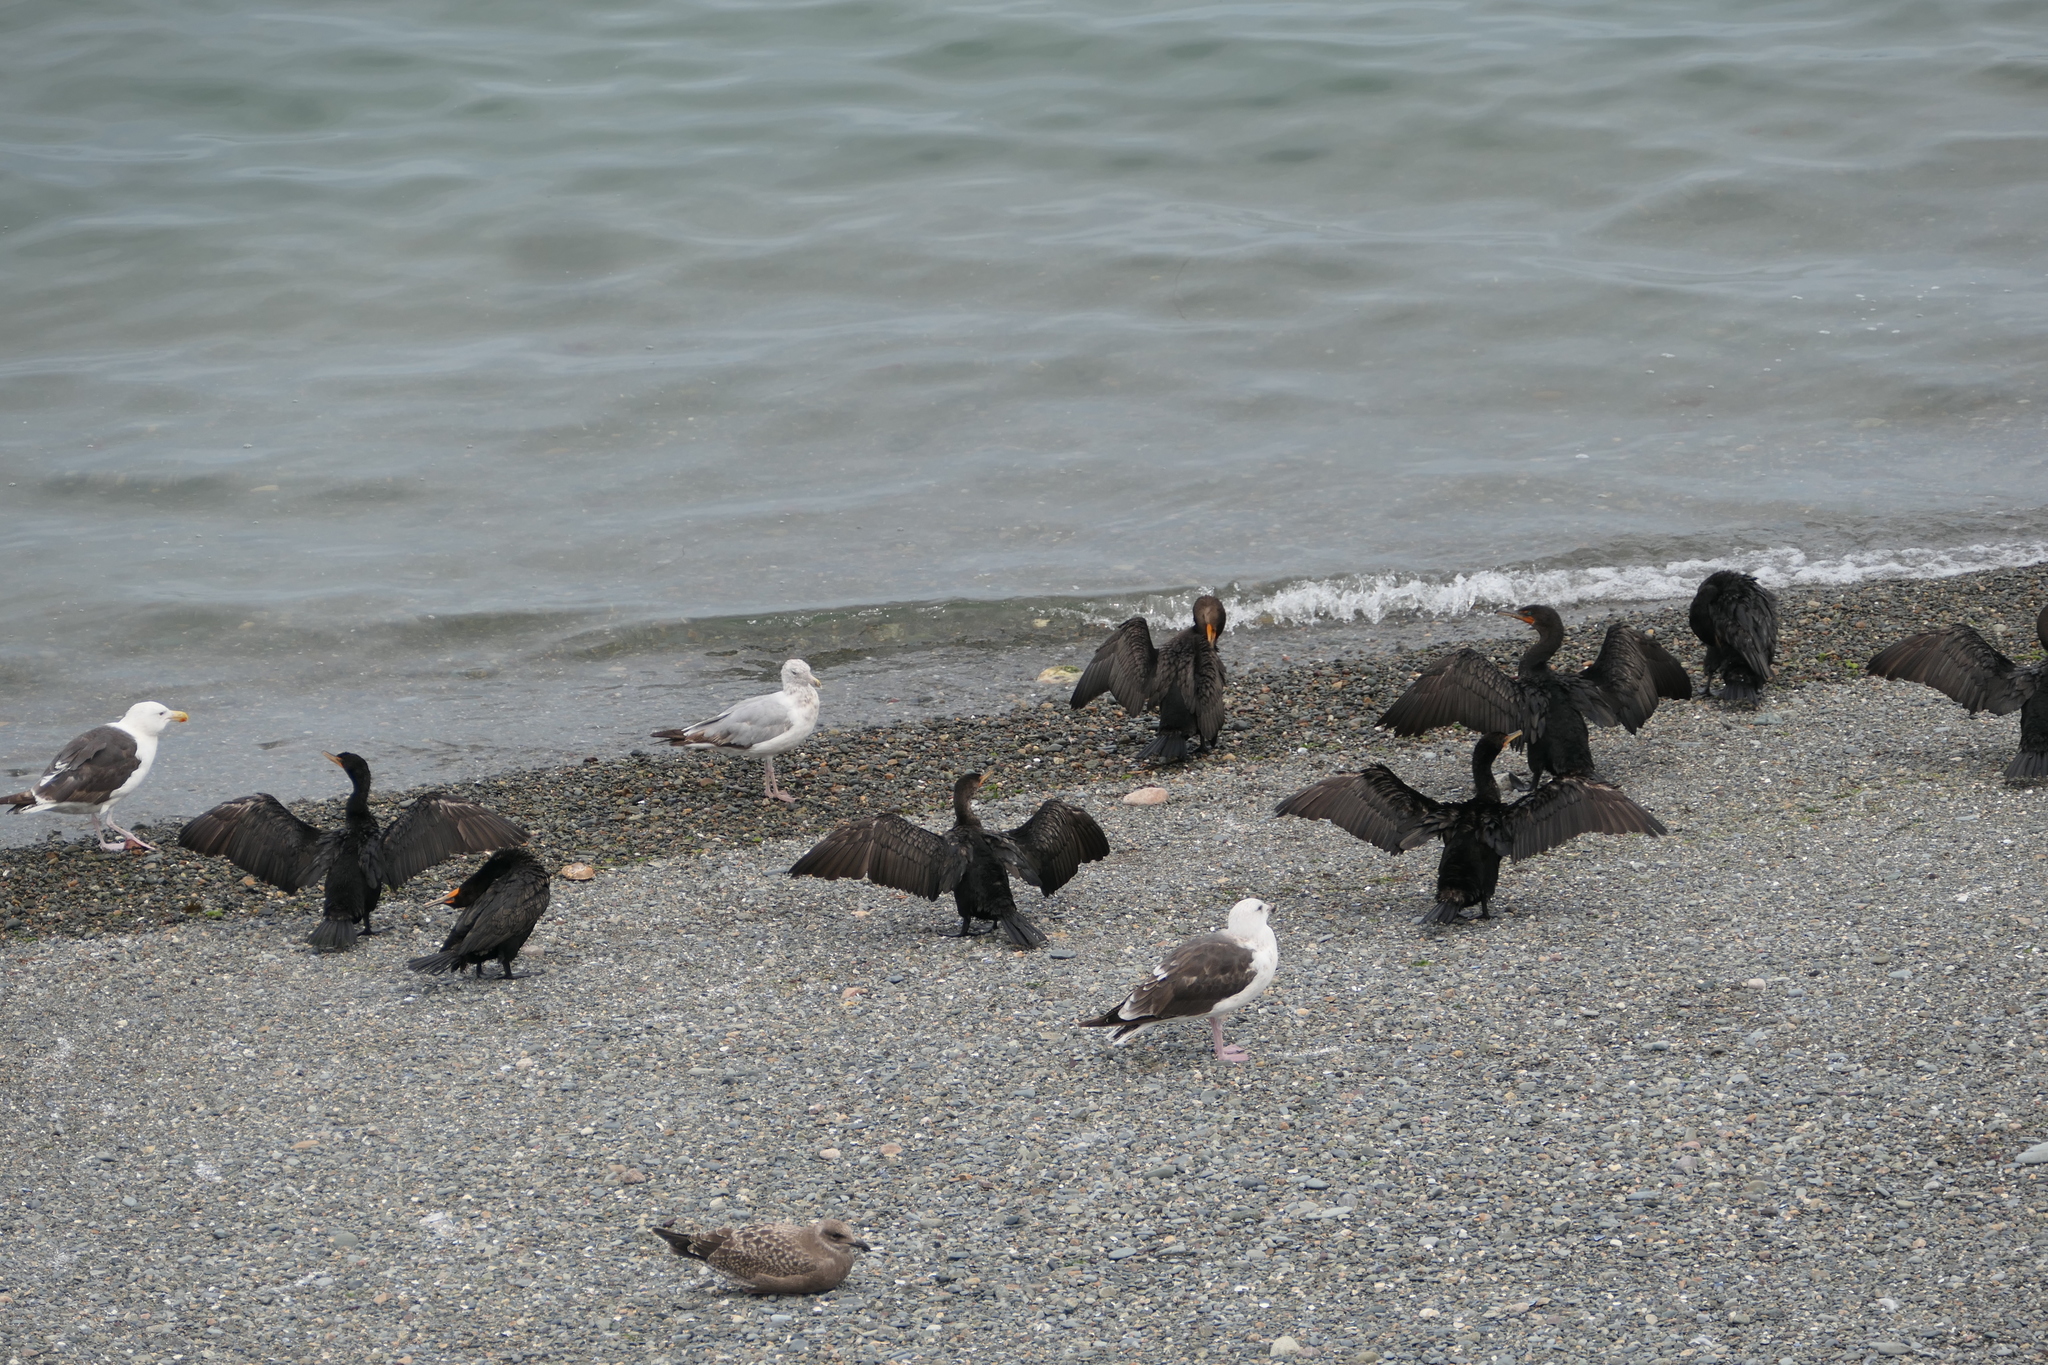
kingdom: Animalia
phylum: Chordata
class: Aves
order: Suliformes
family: Phalacrocoracidae
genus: Phalacrocorax
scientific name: Phalacrocorax auritus
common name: Double-crested cormorant
